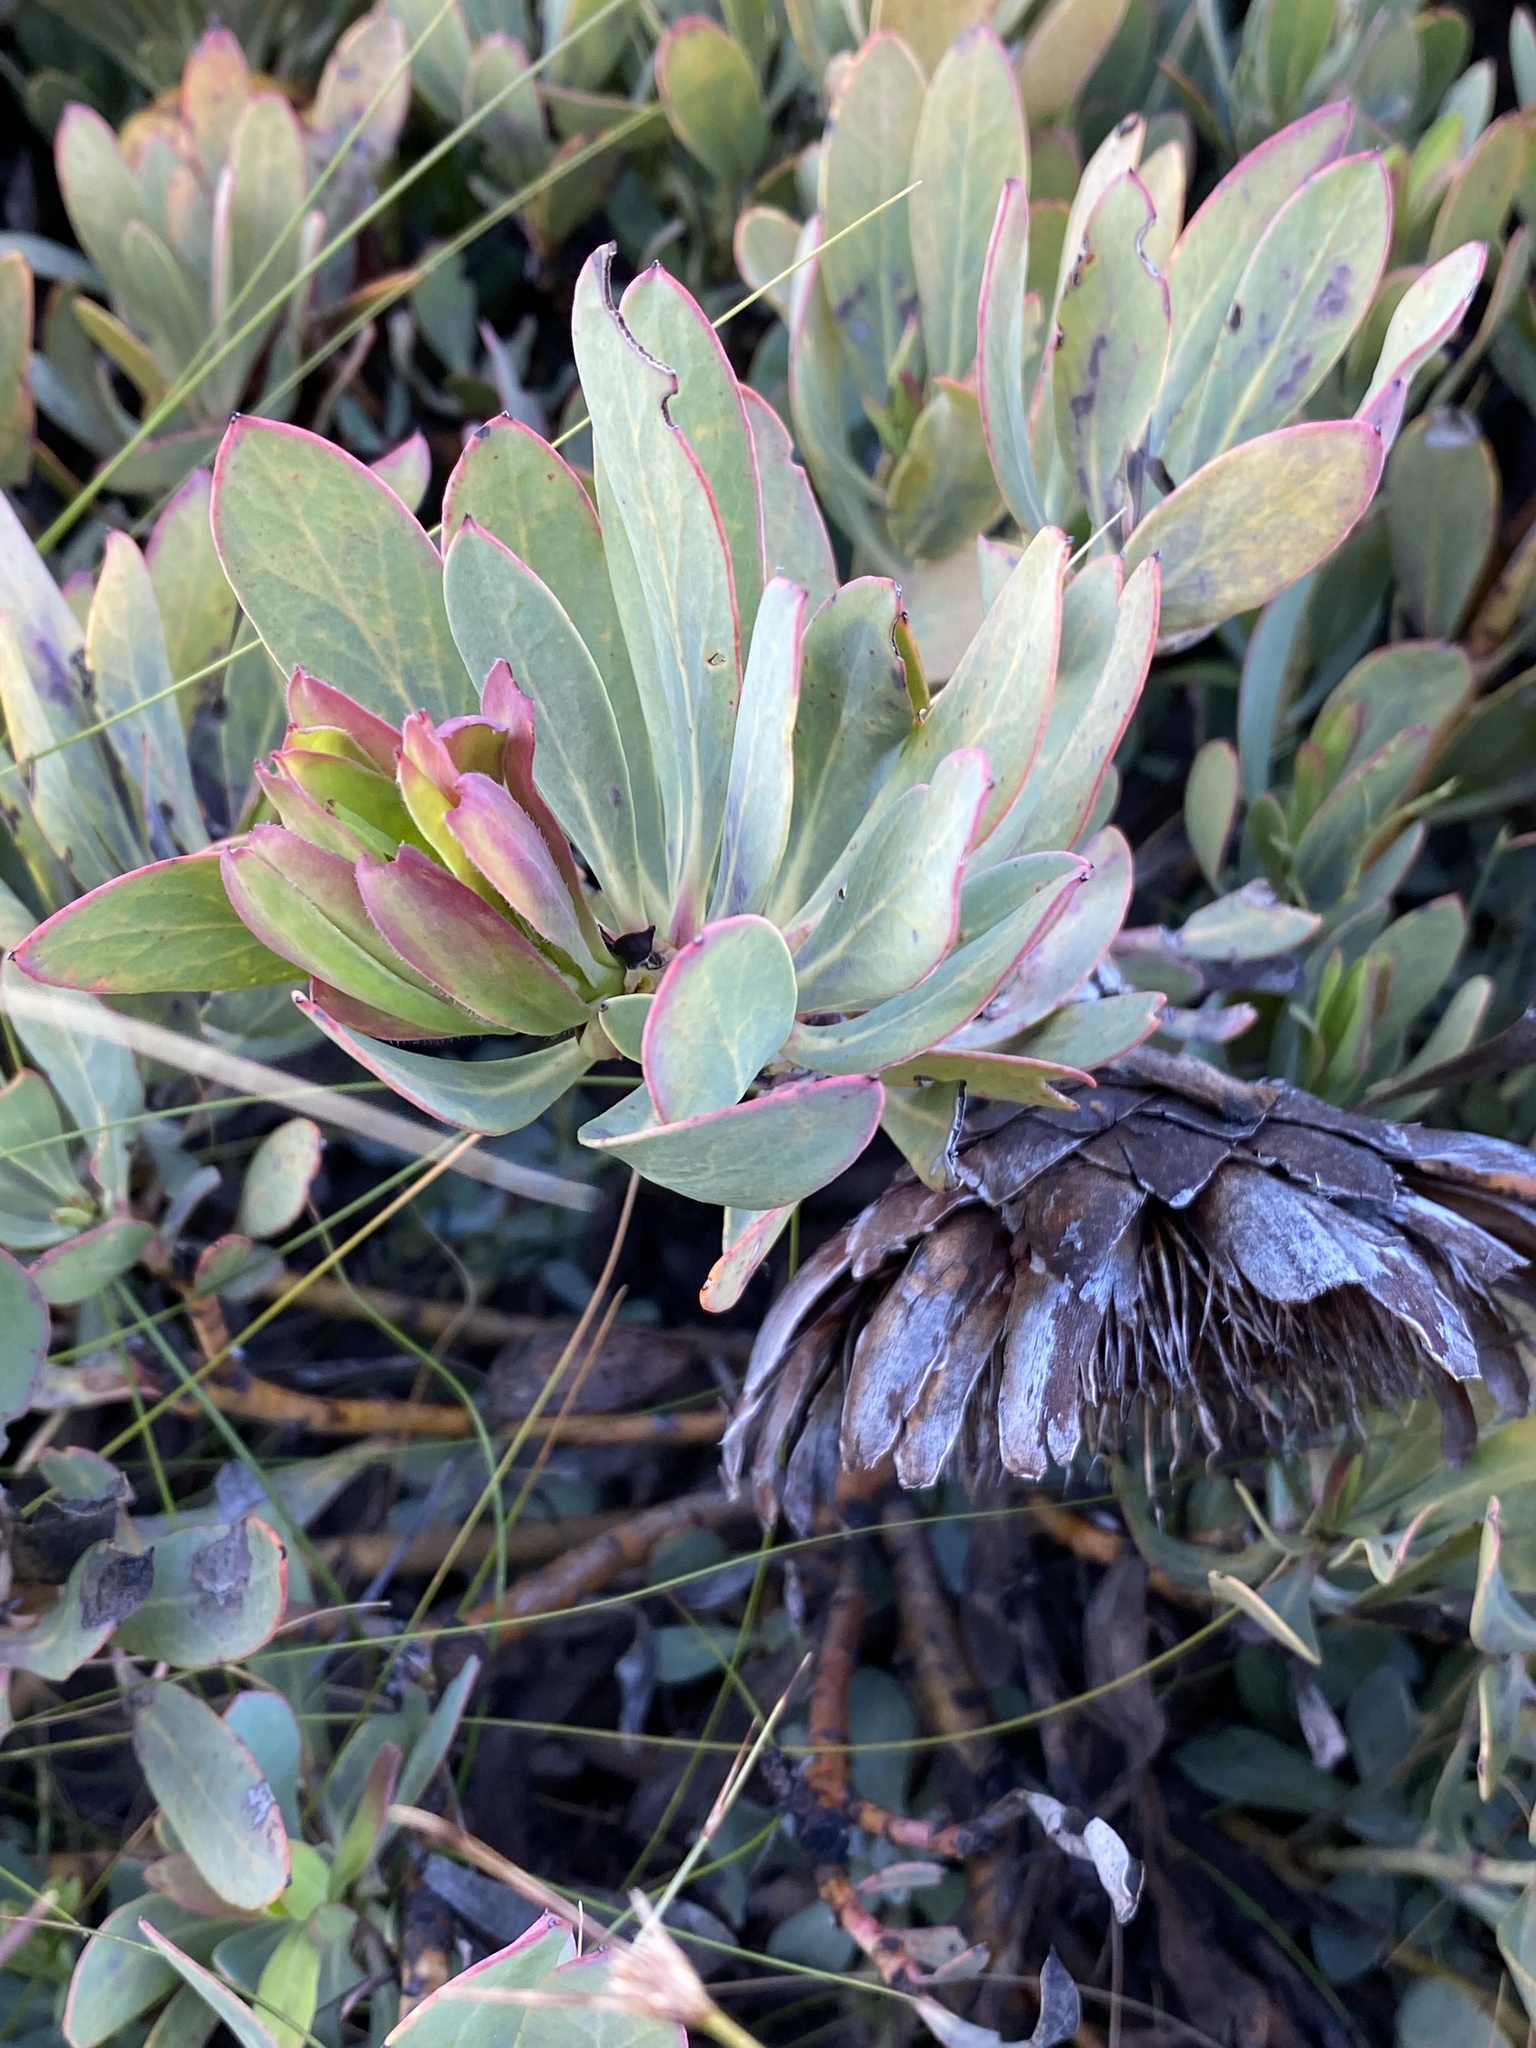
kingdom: Plantae
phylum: Tracheophyta
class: Magnoliopsida
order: Proteales
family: Proteaceae
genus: Protea
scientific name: Protea effusa
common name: Scarlet sugarbush
